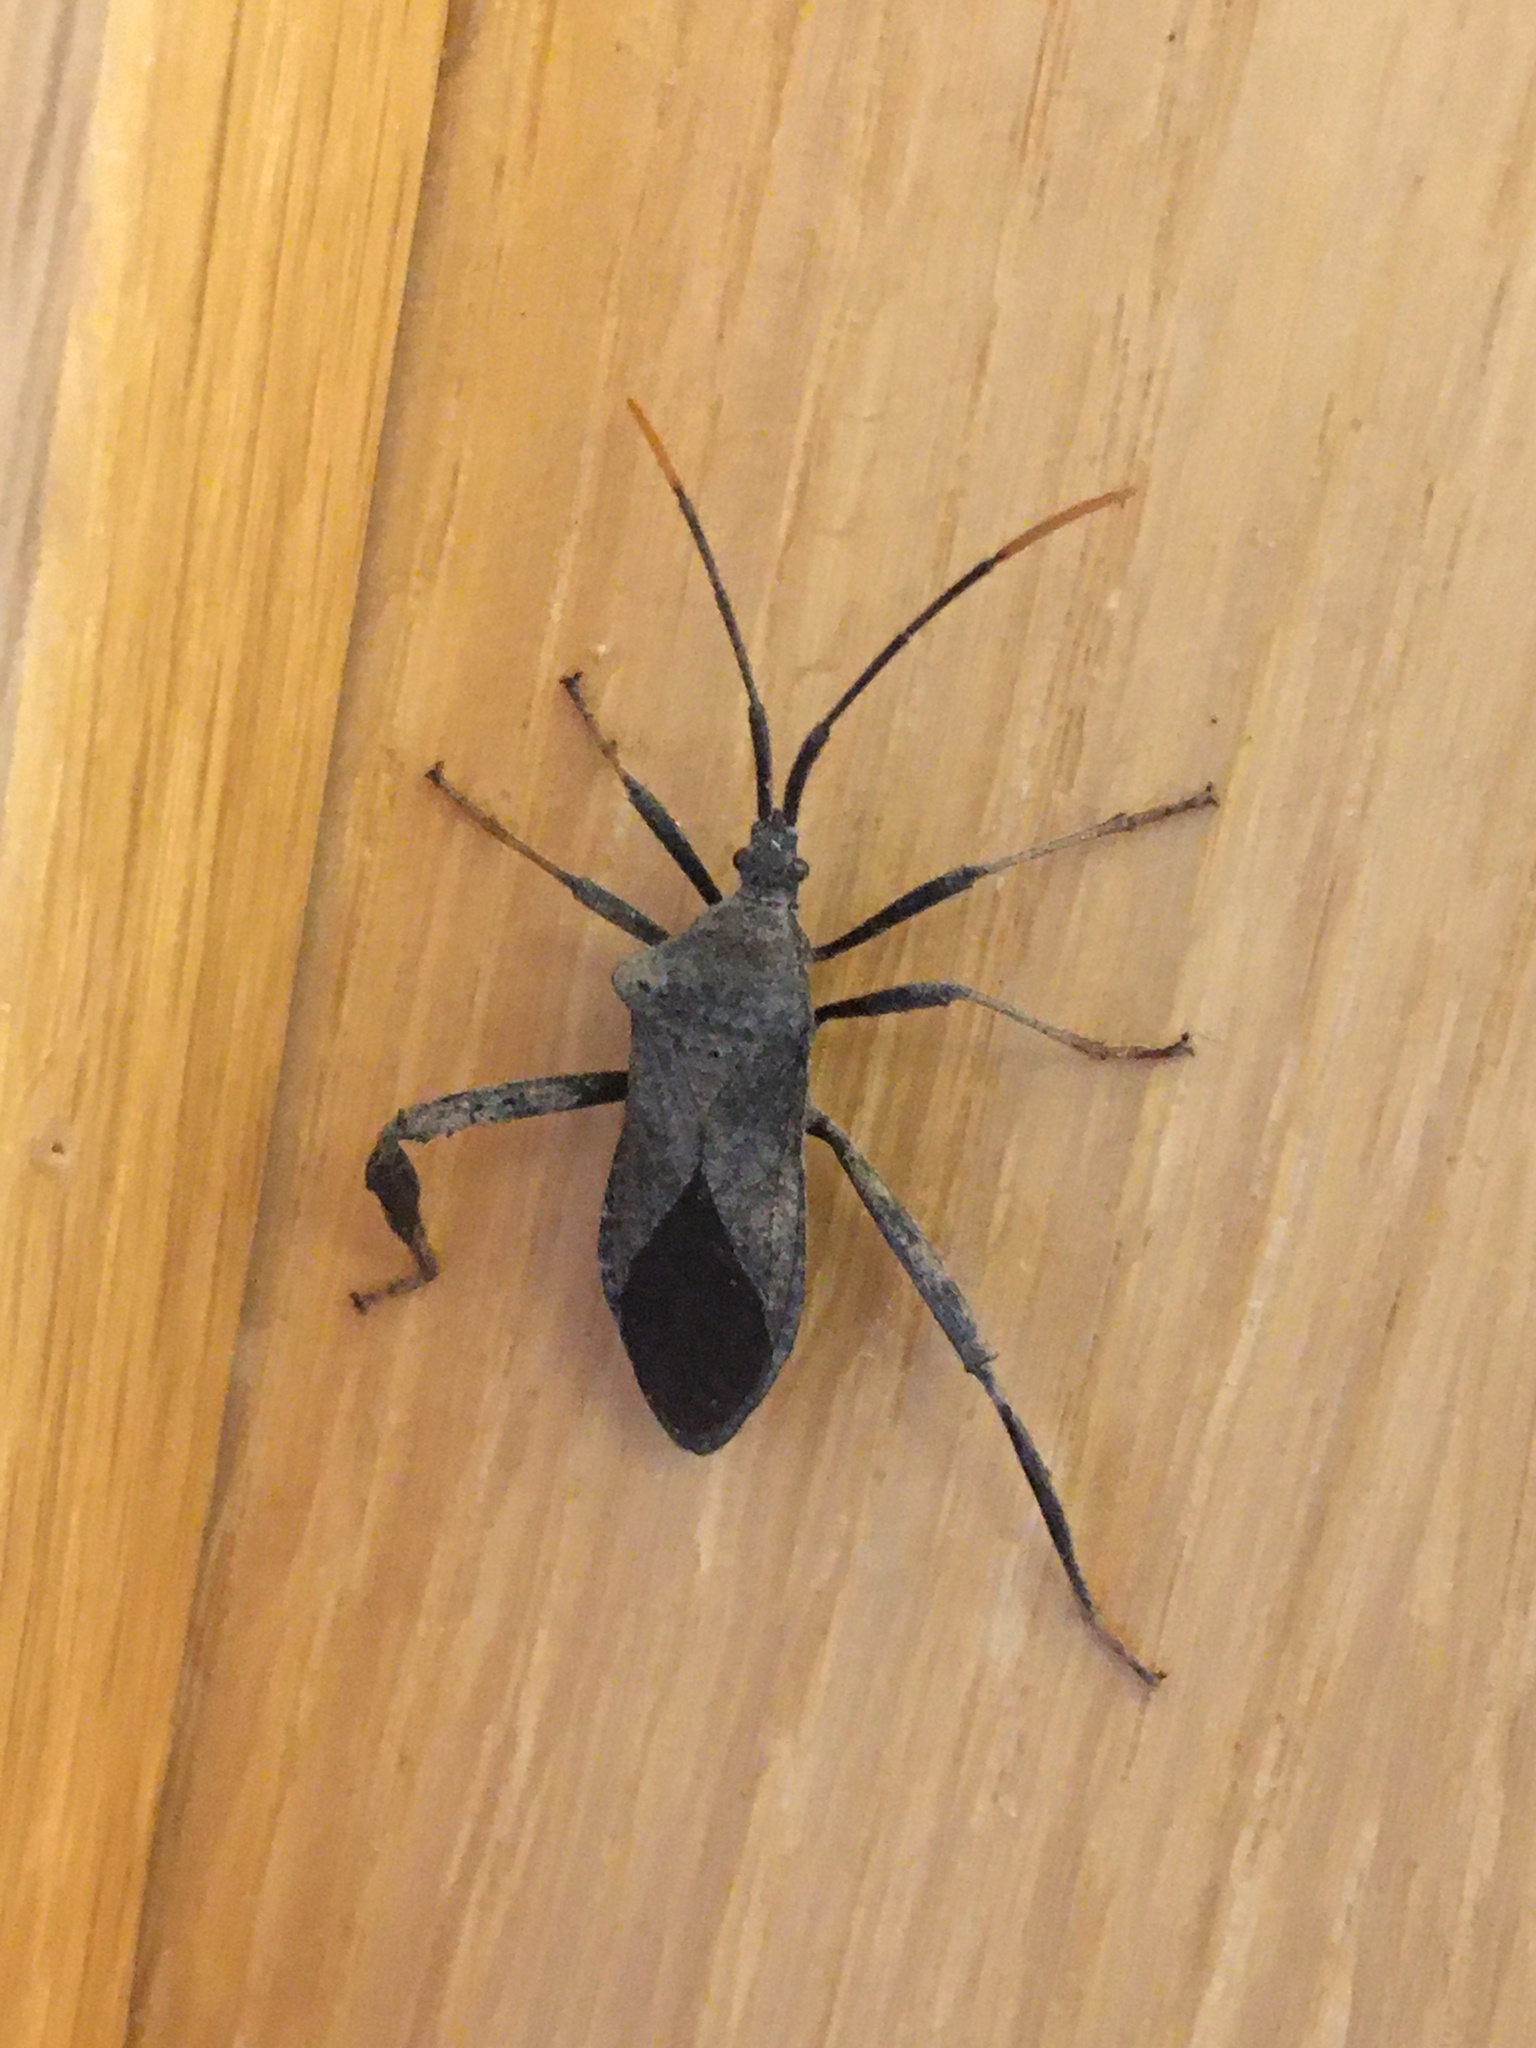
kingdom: Animalia
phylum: Arthropoda
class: Insecta
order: Hemiptera
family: Coreidae
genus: Acanthocephala
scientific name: Acanthocephala terminalis
